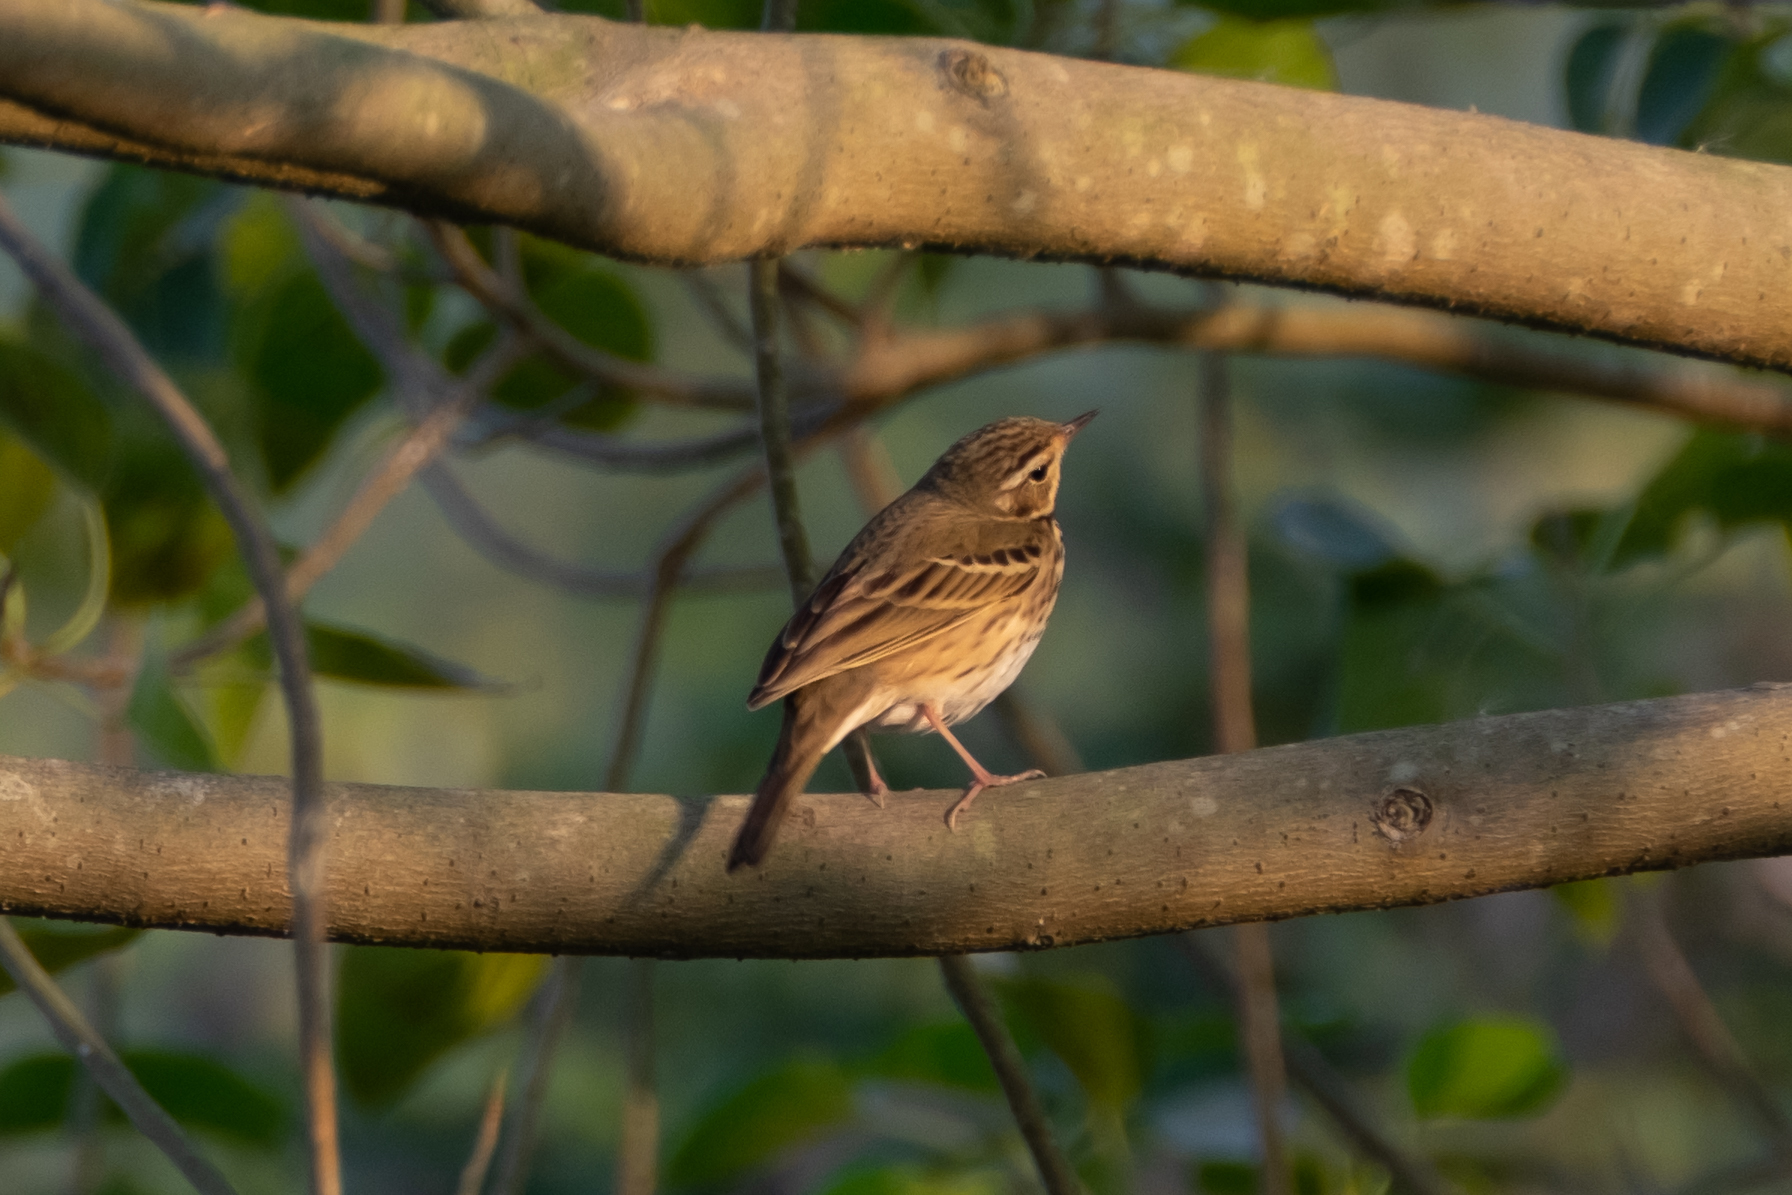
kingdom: Animalia
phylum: Chordata
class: Aves
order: Passeriformes
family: Motacillidae
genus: Anthus
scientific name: Anthus hodgsoni
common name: Olive-backed pipit
